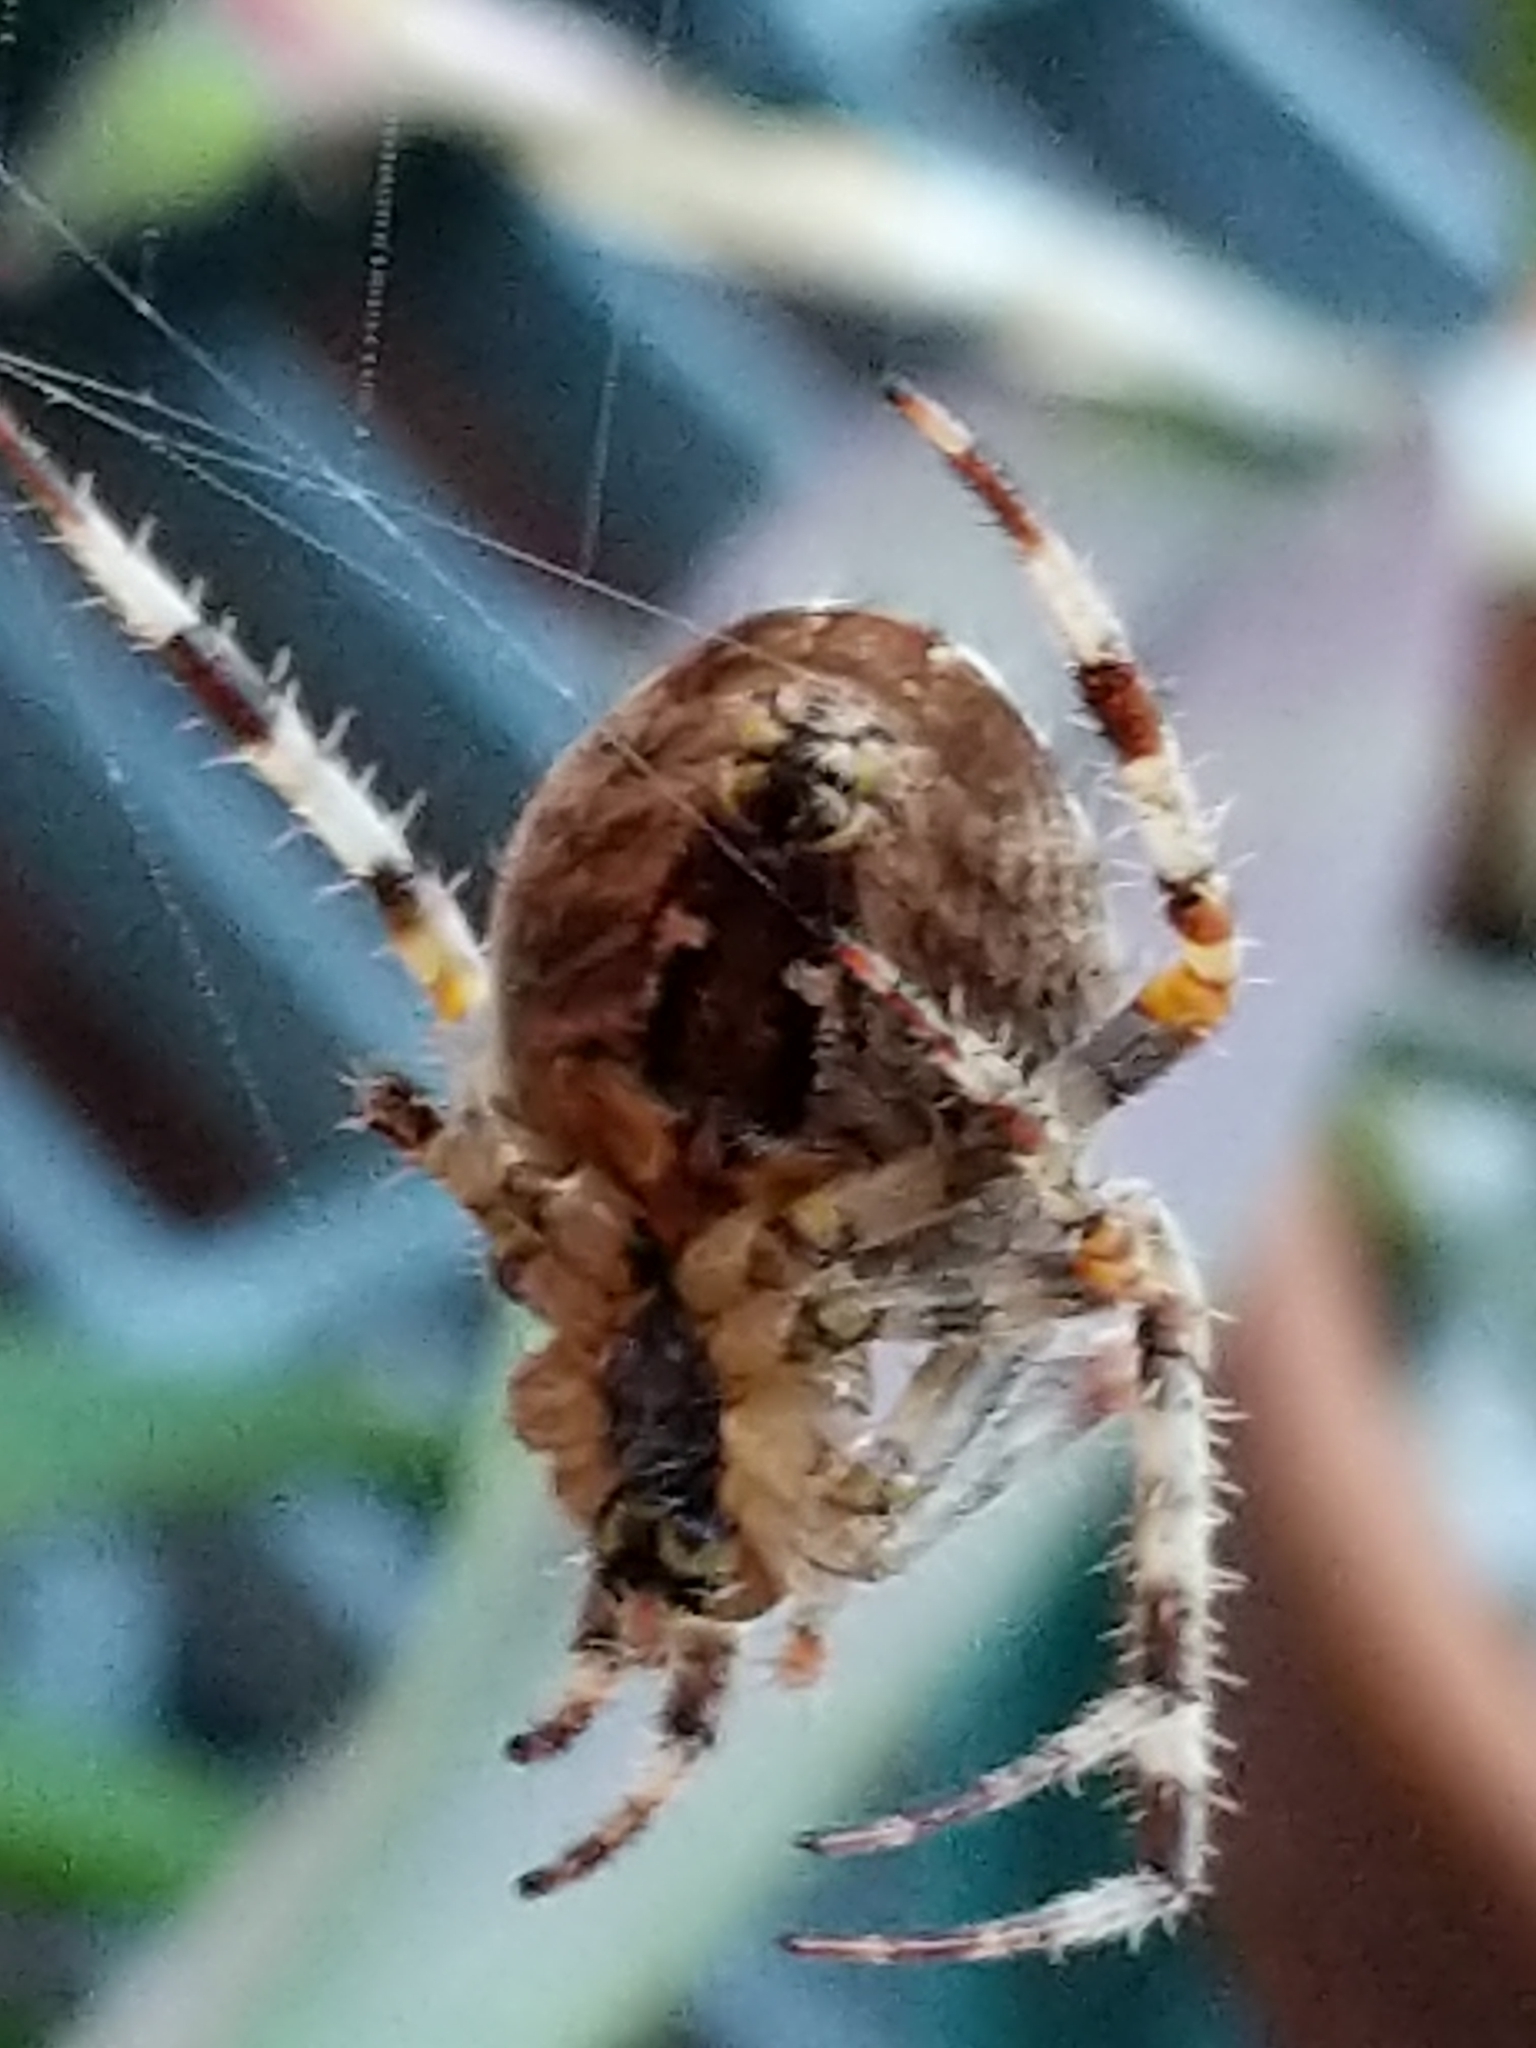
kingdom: Animalia
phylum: Arthropoda
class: Arachnida
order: Araneae
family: Araneidae
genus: Araneus
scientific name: Araneus diadematus
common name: Cross orbweaver
